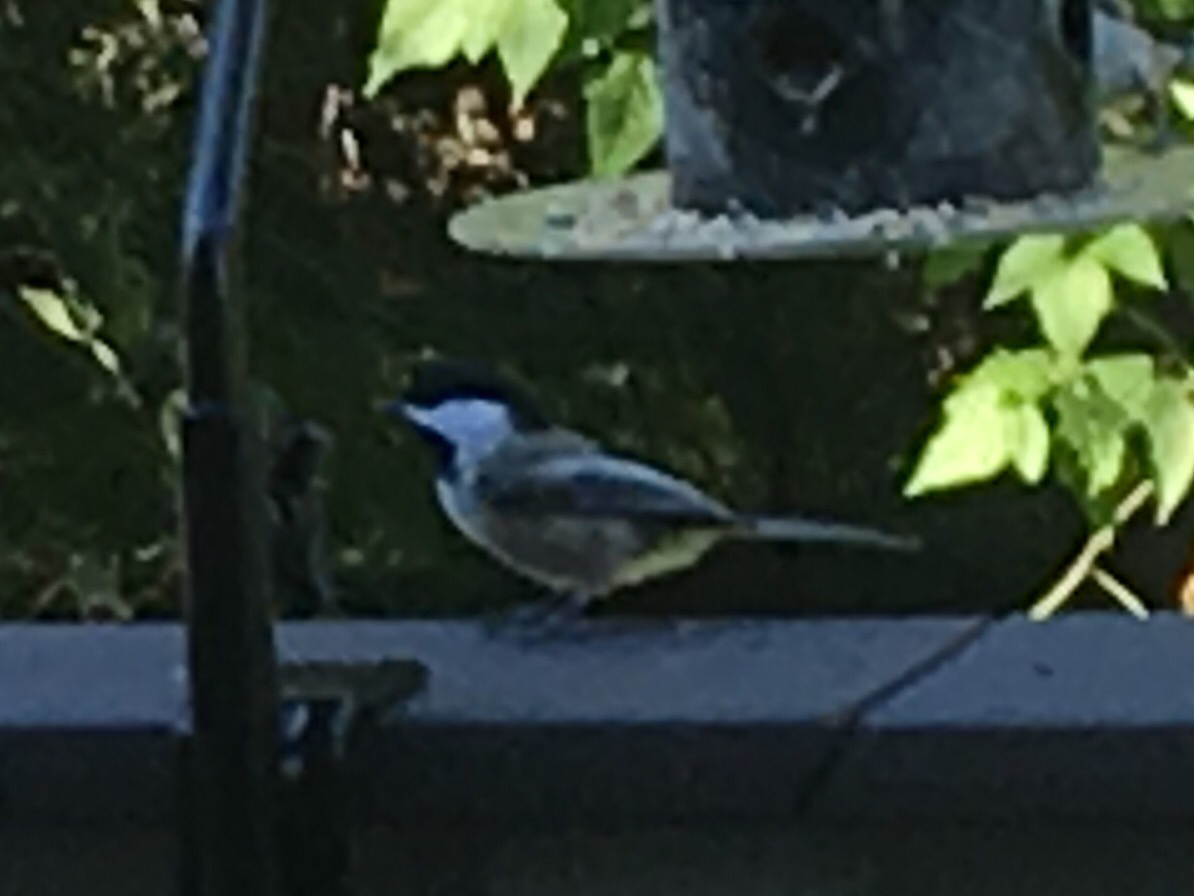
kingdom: Animalia
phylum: Chordata
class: Aves
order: Passeriformes
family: Paridae
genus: Poecile
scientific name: Poecile atricapillus
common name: Black-capped chickadee
